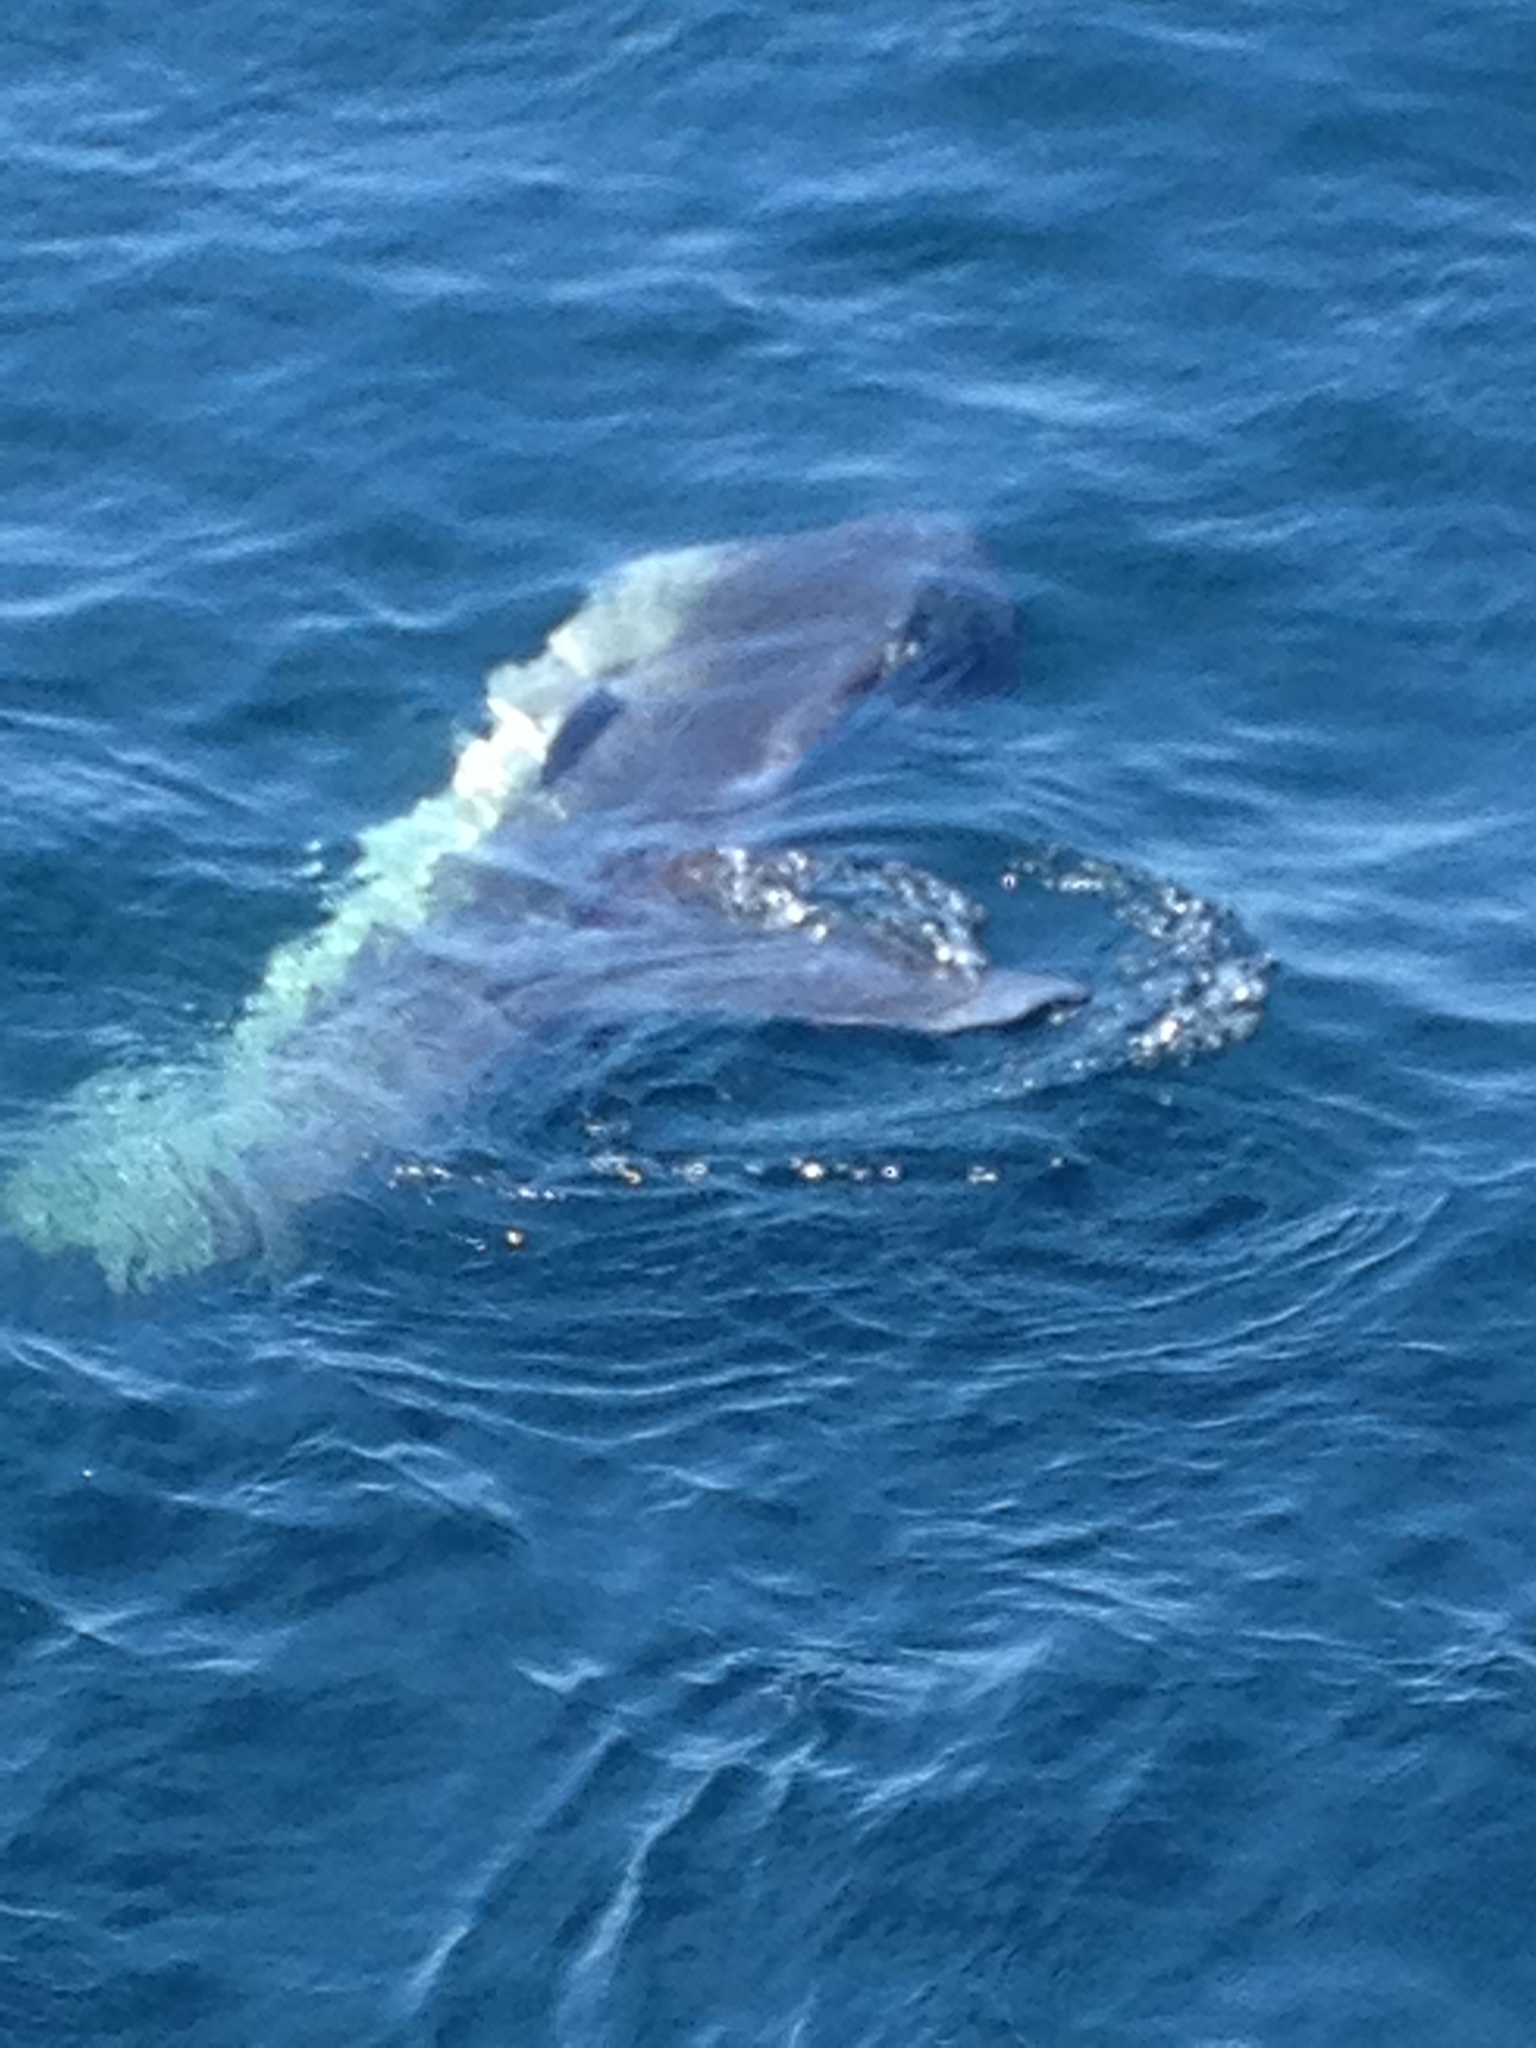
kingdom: Animalia
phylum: Chordata
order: Tetraodontiformes
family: Molidae
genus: Mola
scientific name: Mola mola
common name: Ocean sunfish
